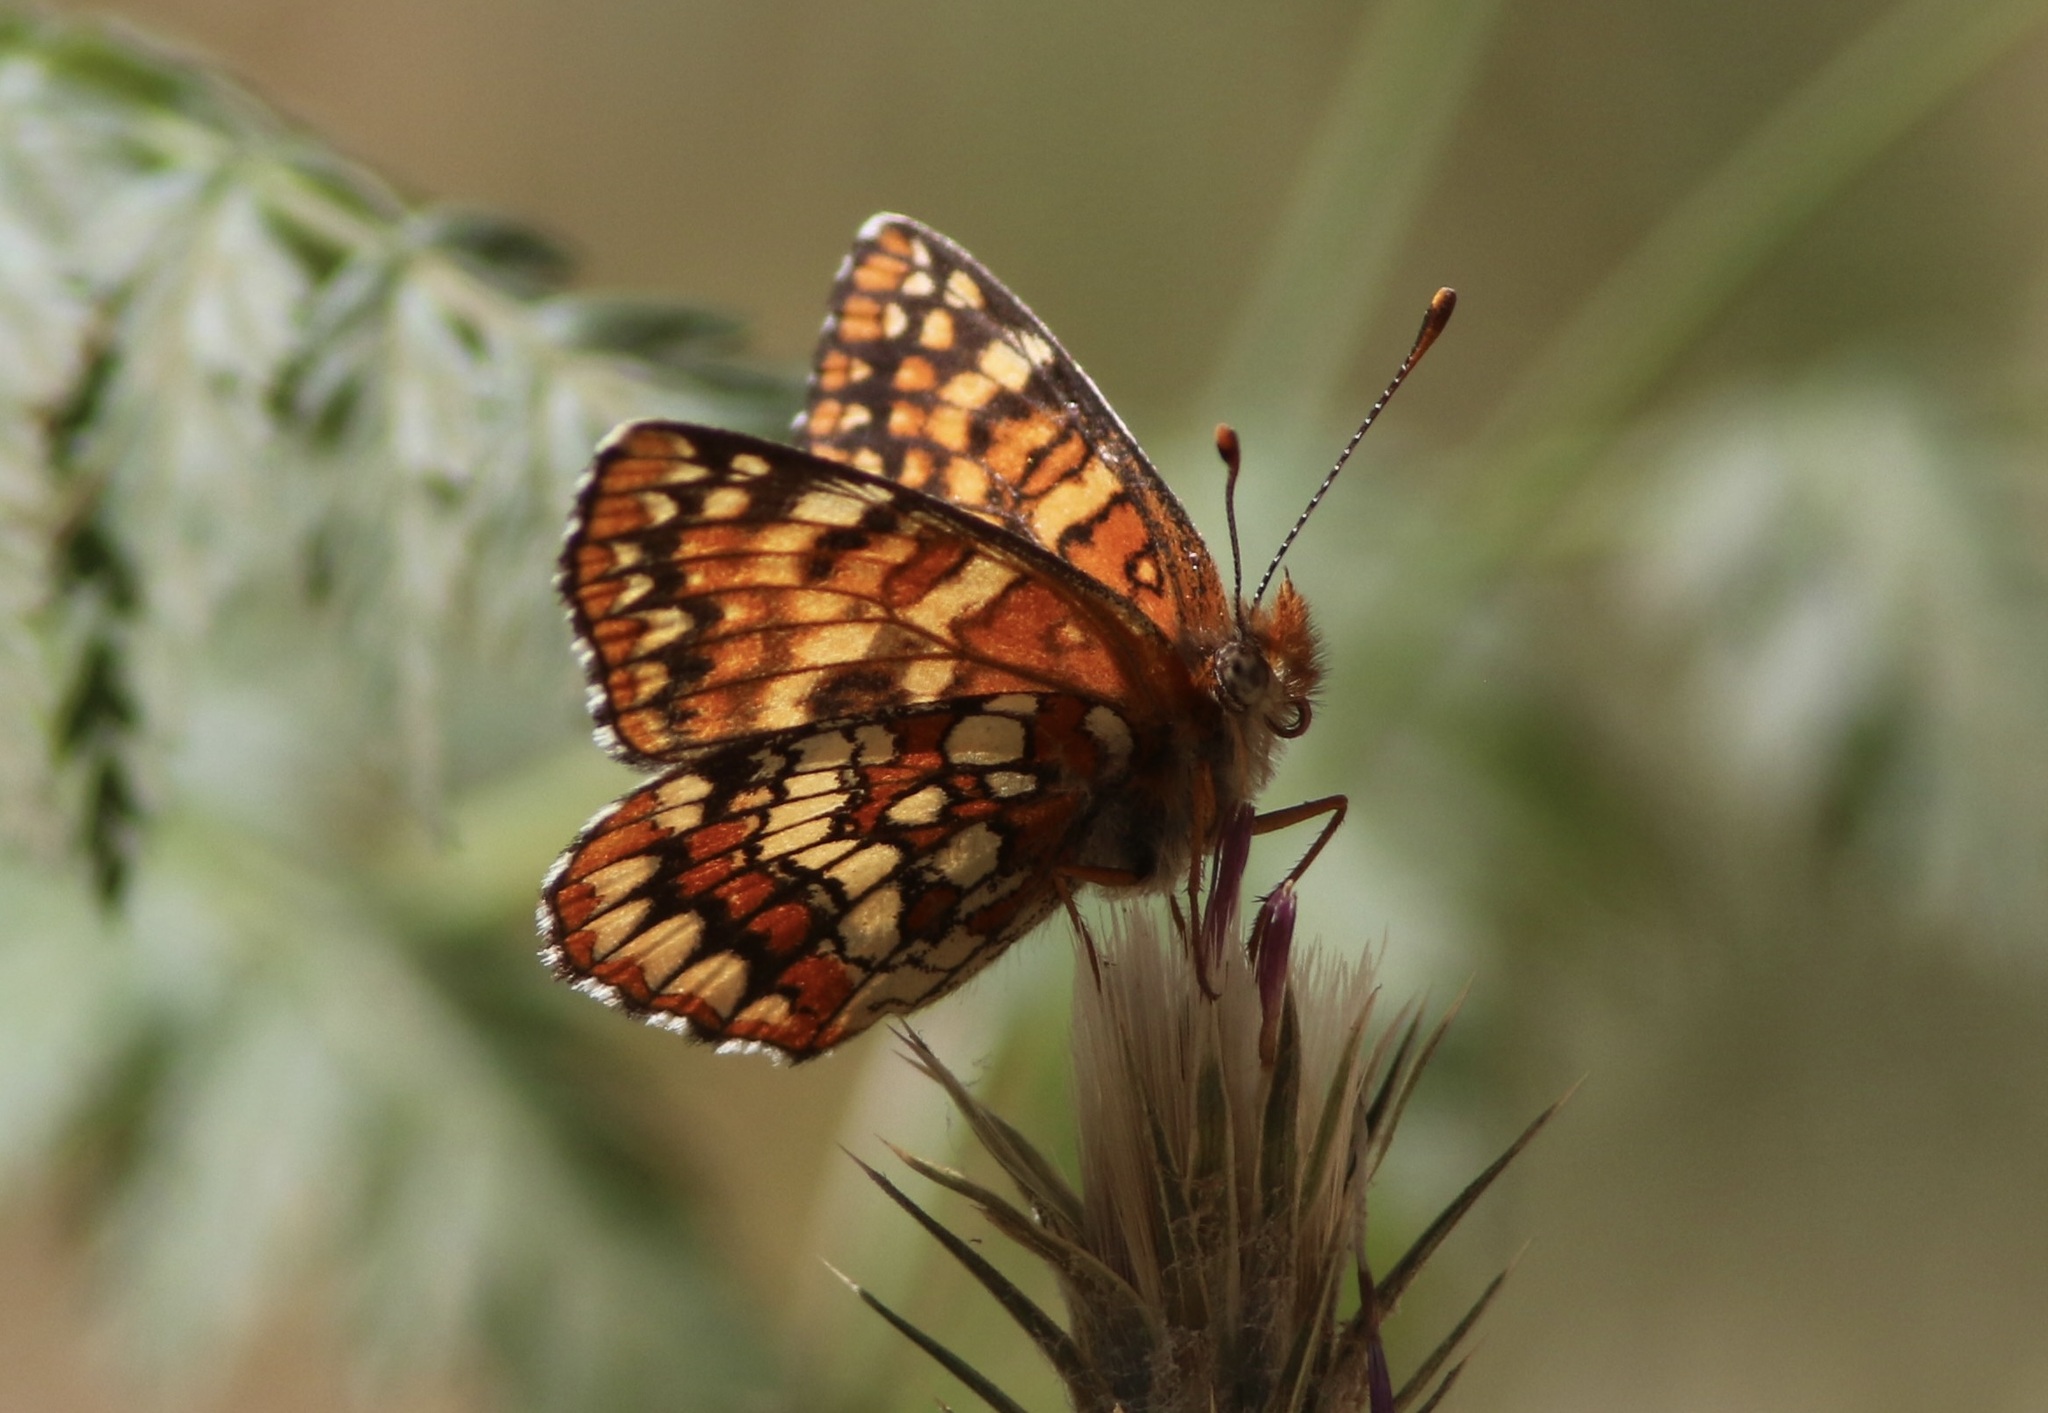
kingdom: Animalia
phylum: Arthropoda
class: Insecta
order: Lepidoptera
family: Nymphalidae
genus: Chlosyne
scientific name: Chlosyne palla
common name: Northern checkerspot
